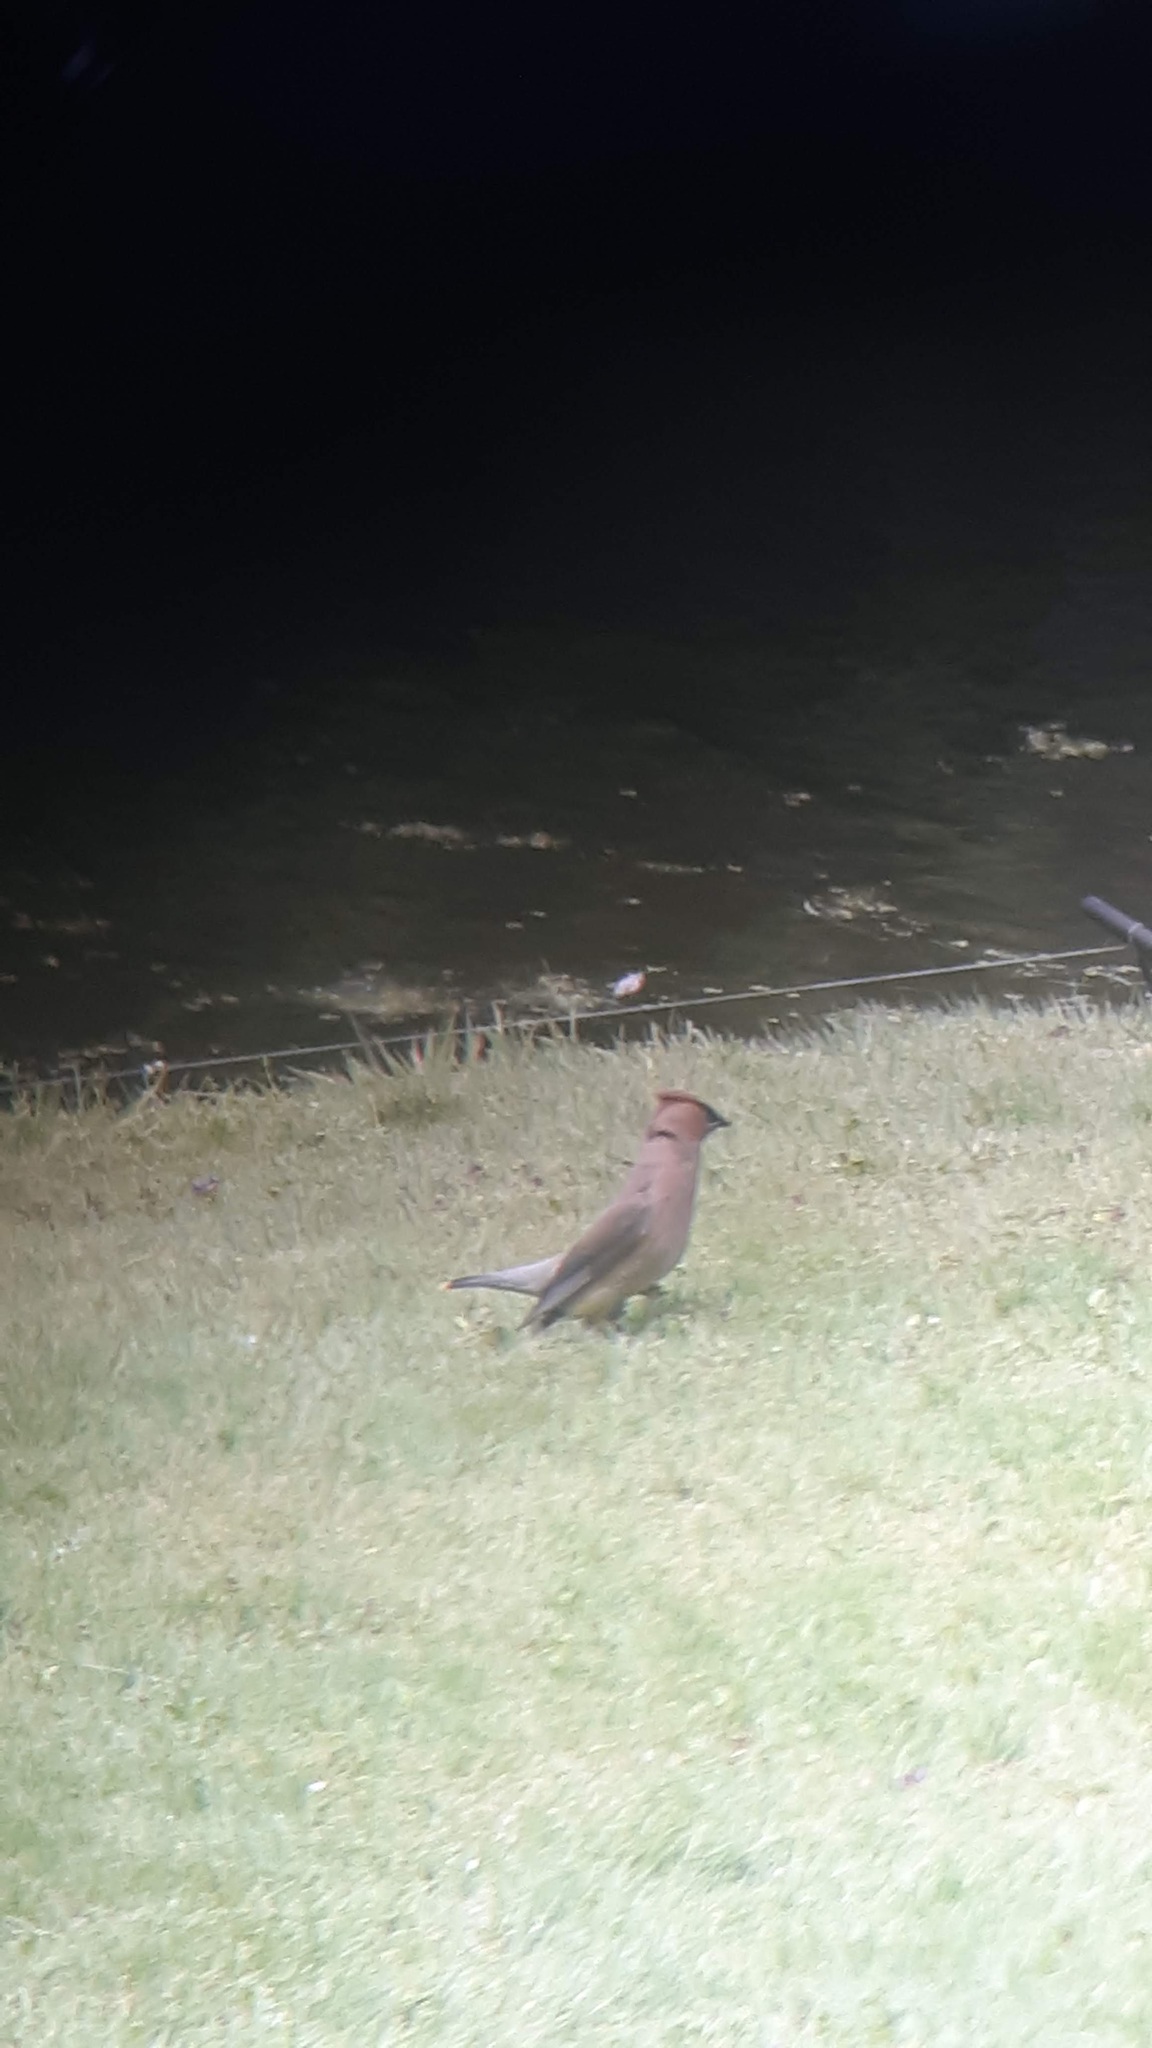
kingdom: Animalia
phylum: Chordata
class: Aves
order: Passeriformes
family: Bombycillidae
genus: Bombycilla
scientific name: Bombycilla cedrorum
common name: Cedar waxwing
